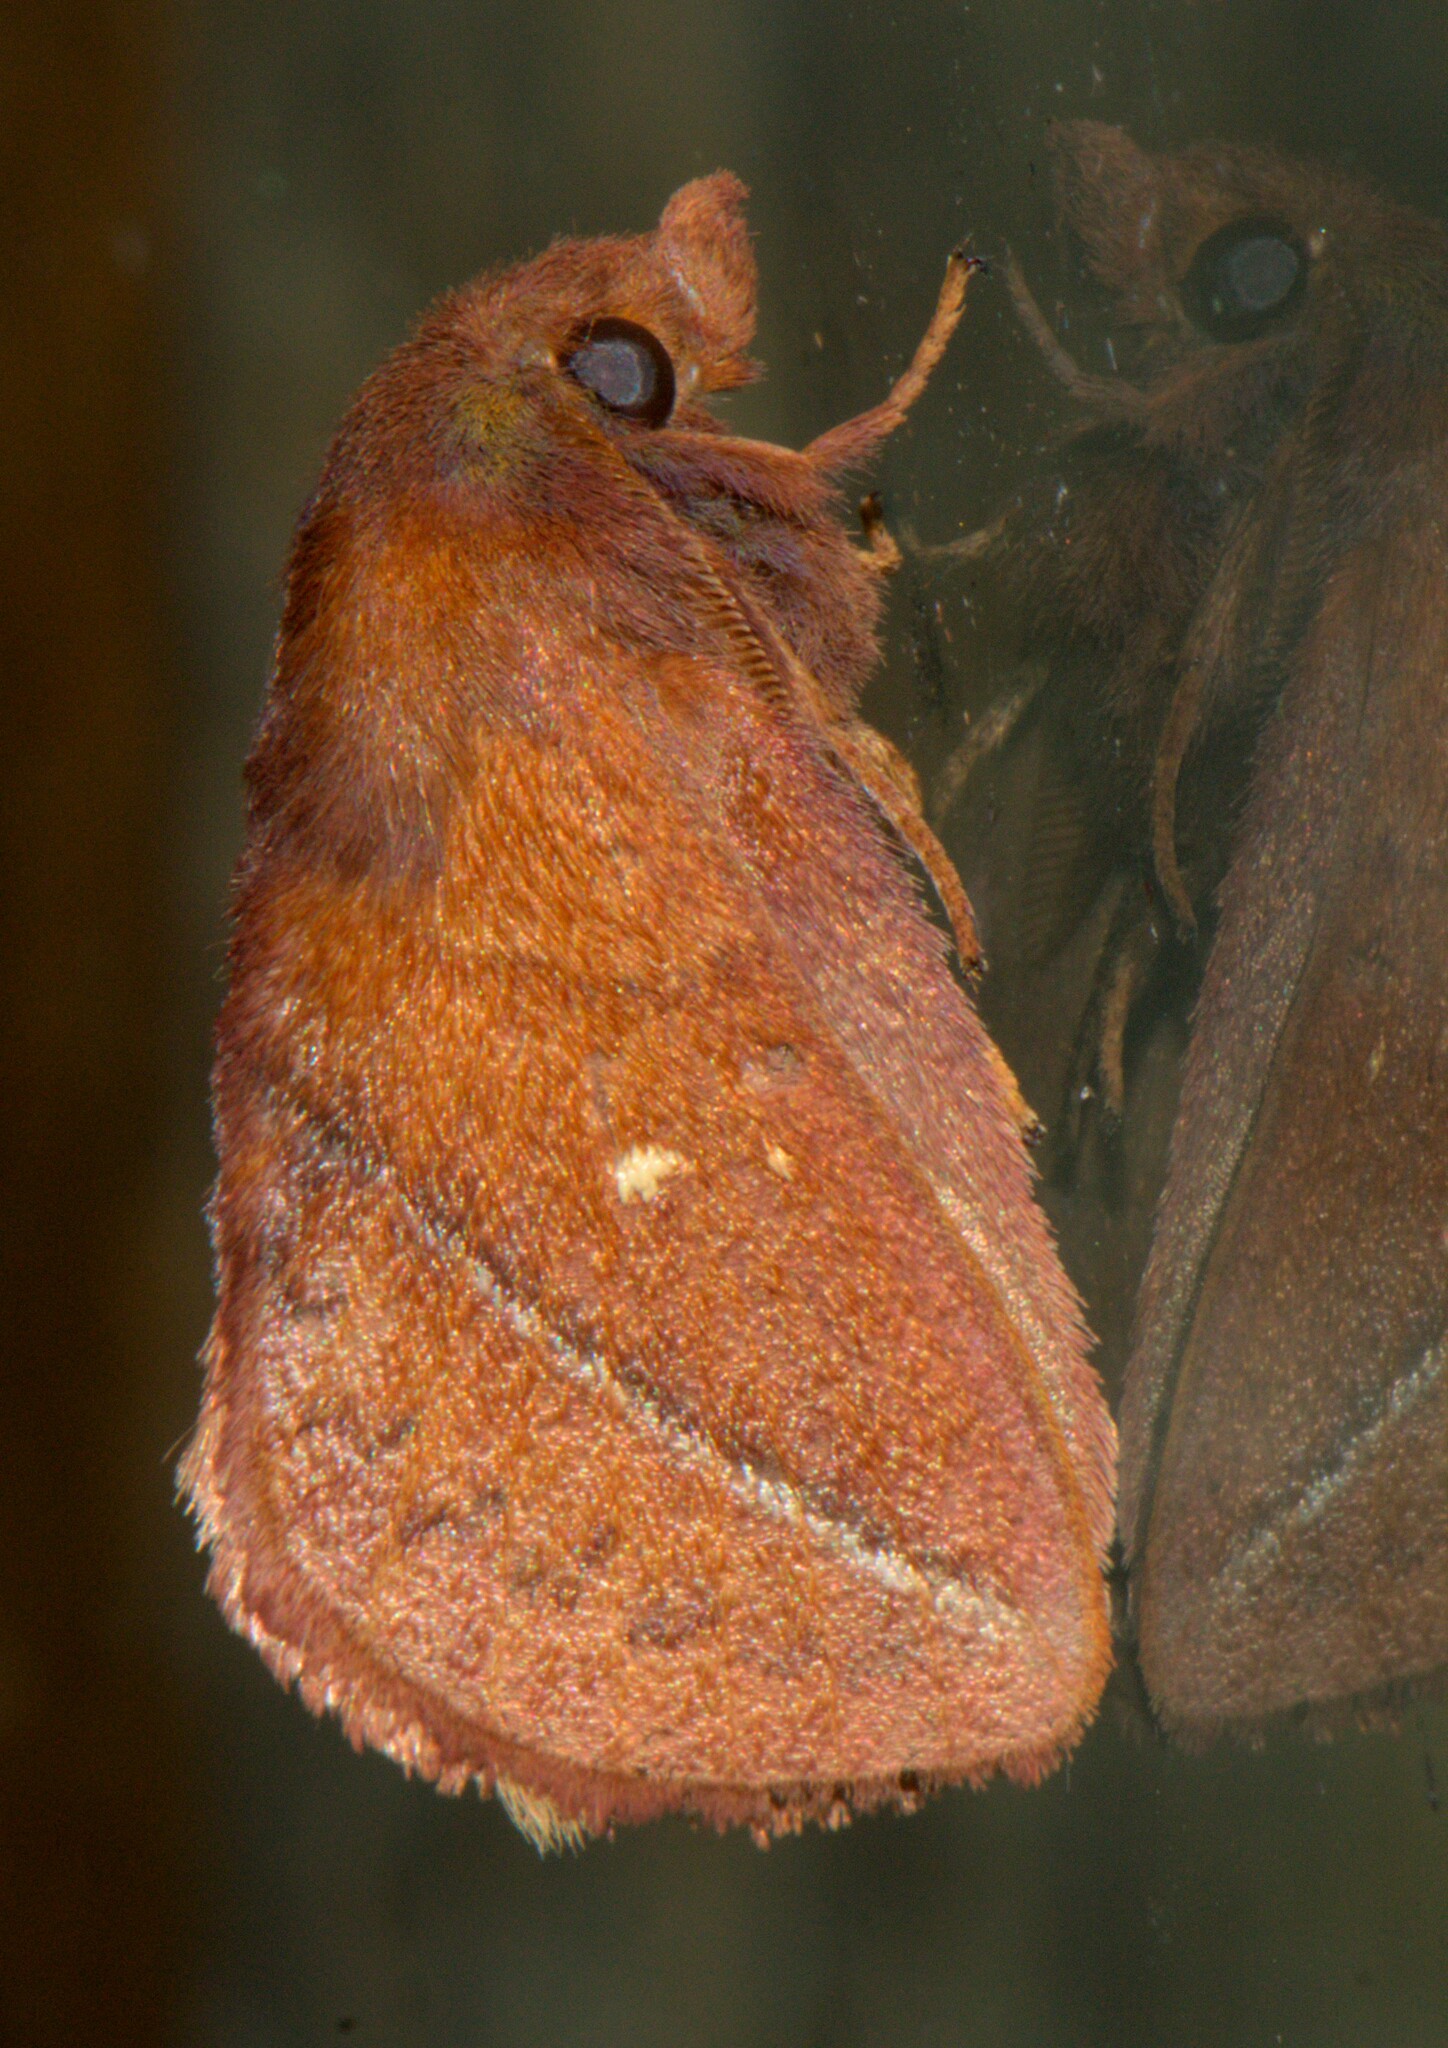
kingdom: Animalia
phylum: Arthropoda
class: Insecta
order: Lepidoptera
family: Lasiocampidae
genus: Euthrix
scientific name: Euthrix fossa
